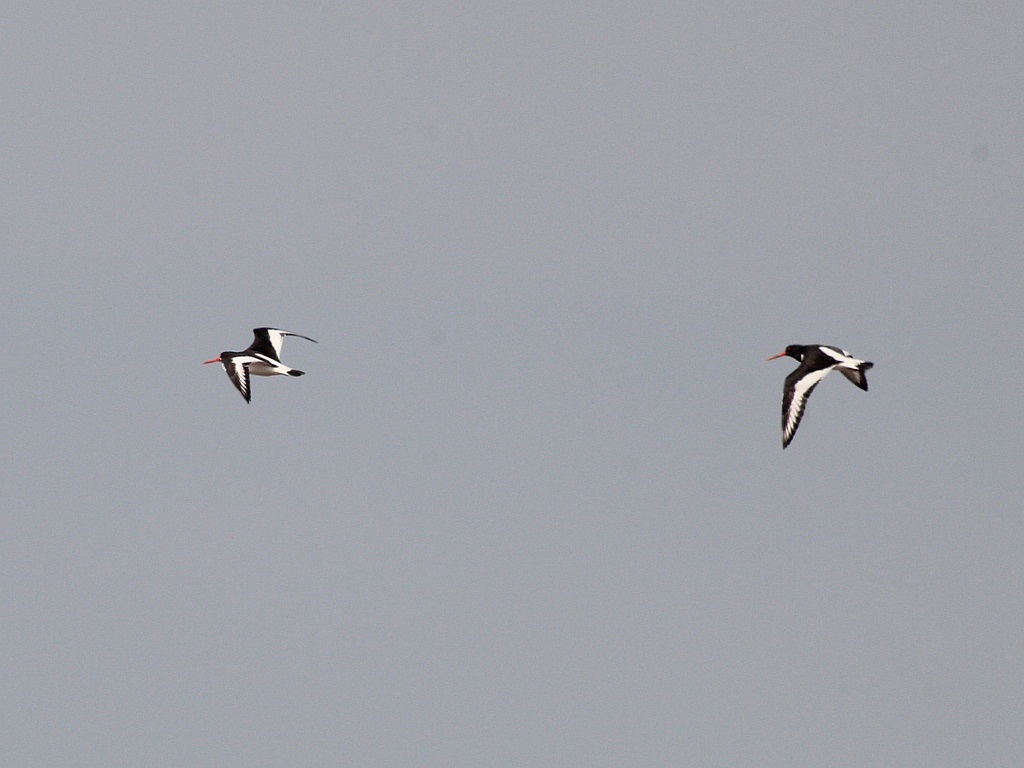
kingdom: Animalia
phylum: Chordata
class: Aves
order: Charadriiformes
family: Haematopodidae
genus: Haematopus
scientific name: Haematopus ostralegus
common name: Eurasian oystercatcher
